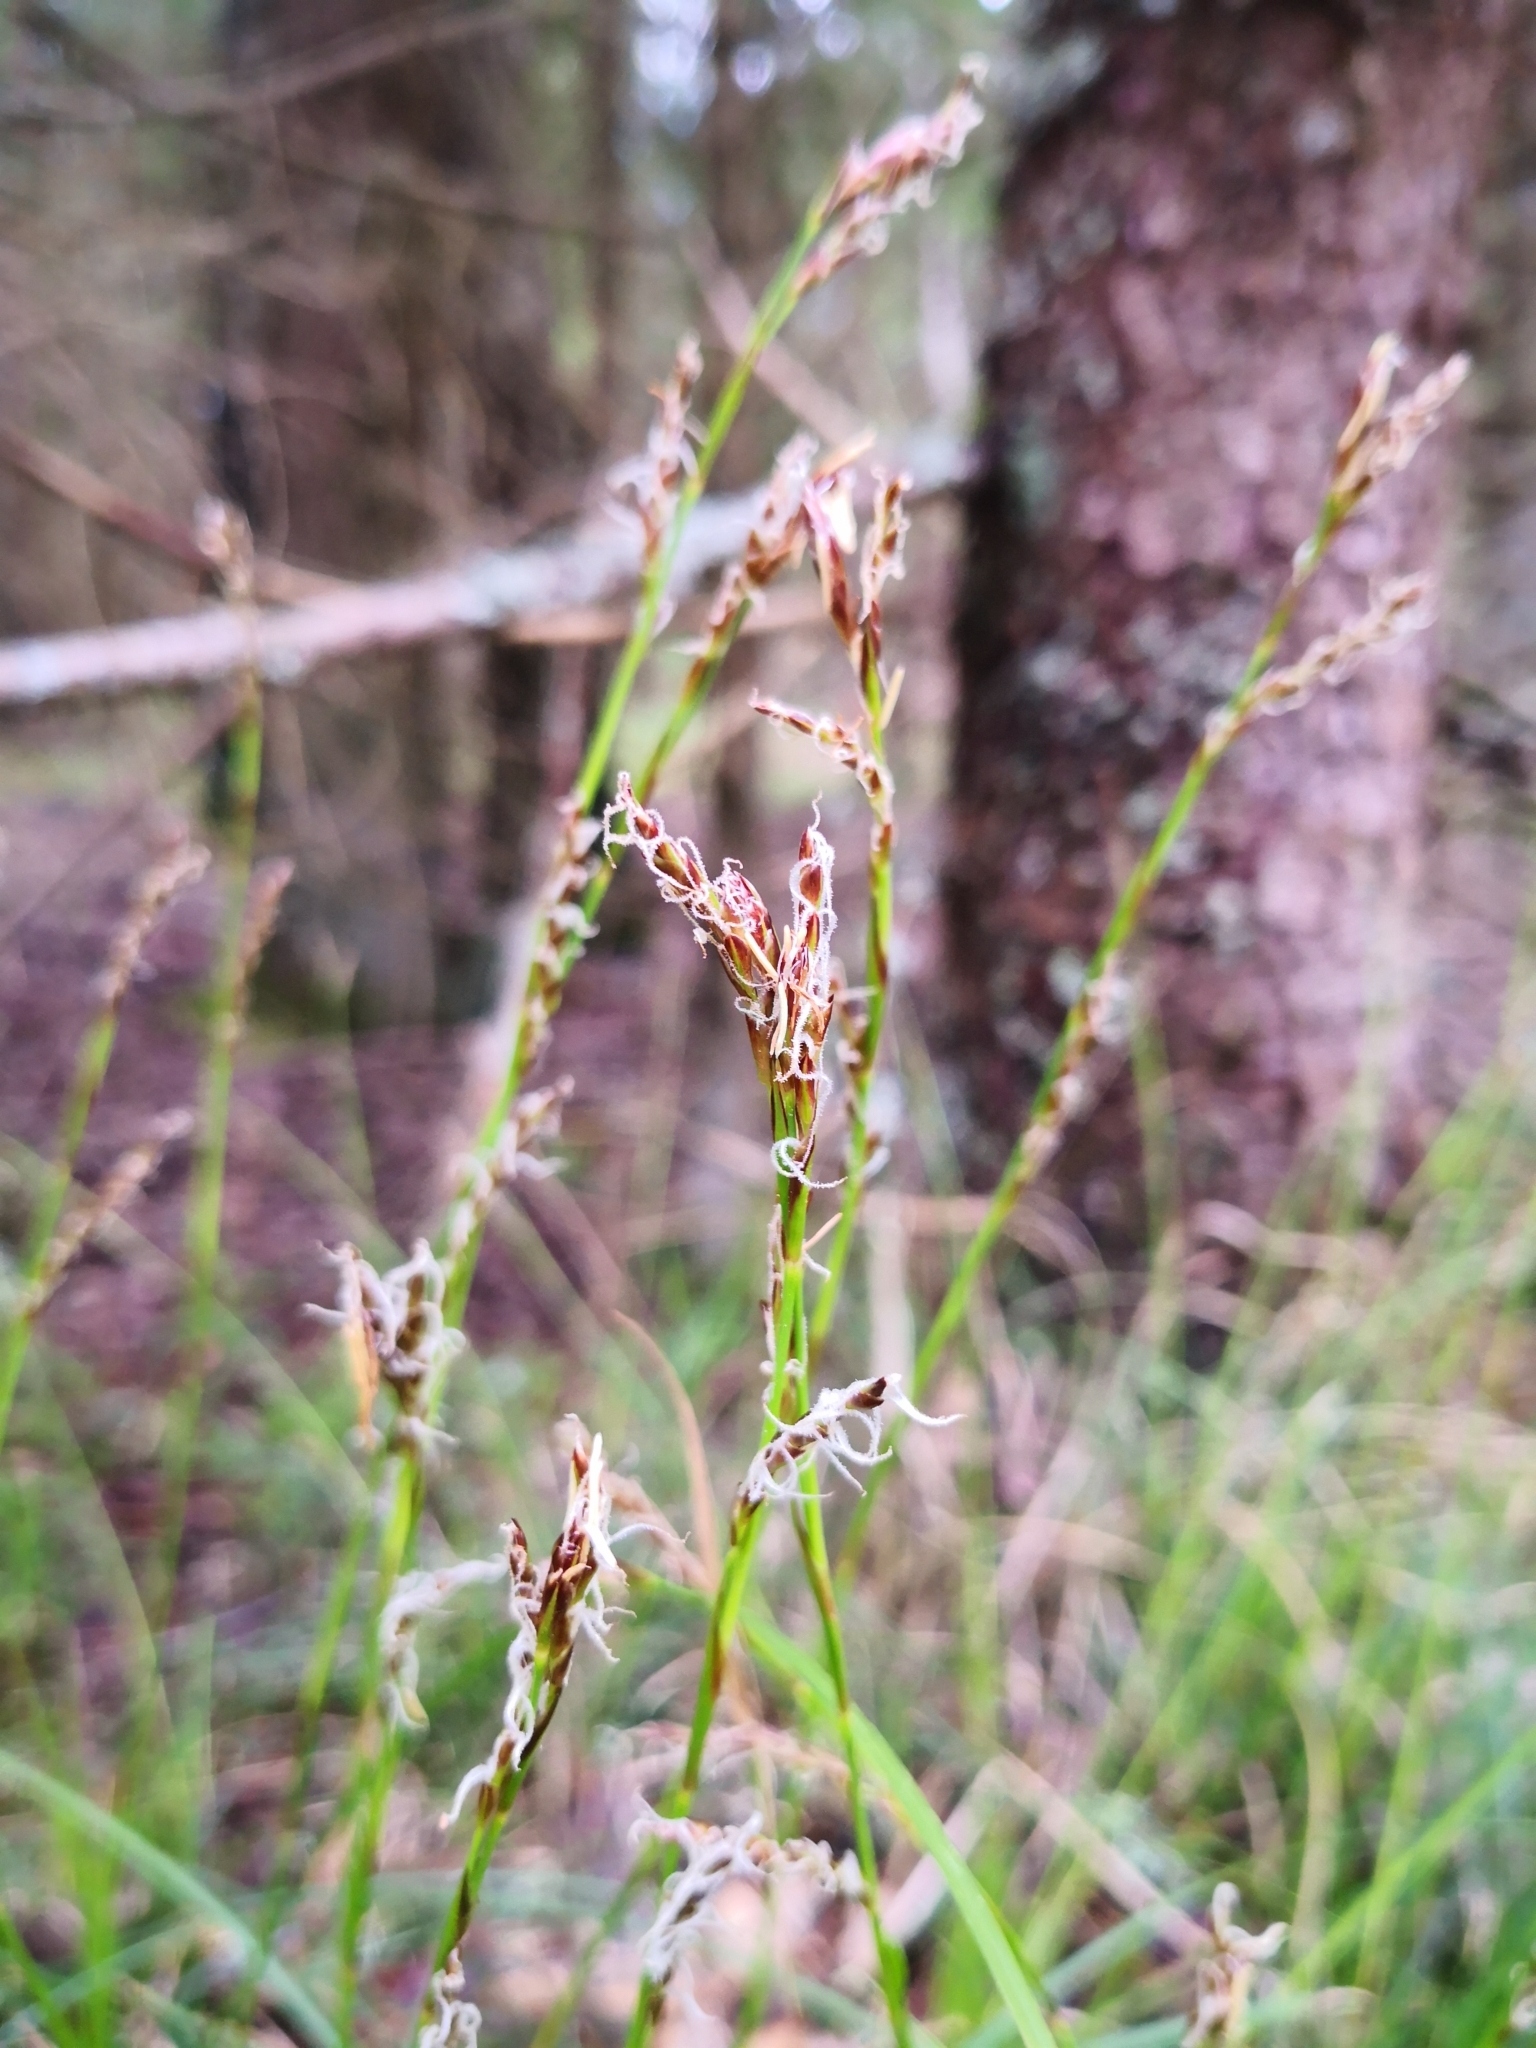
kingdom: Plantae
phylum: Tracheophyta
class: Liliopsida
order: Poales
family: Cyperaceae
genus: Carex
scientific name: Carex rhizina
